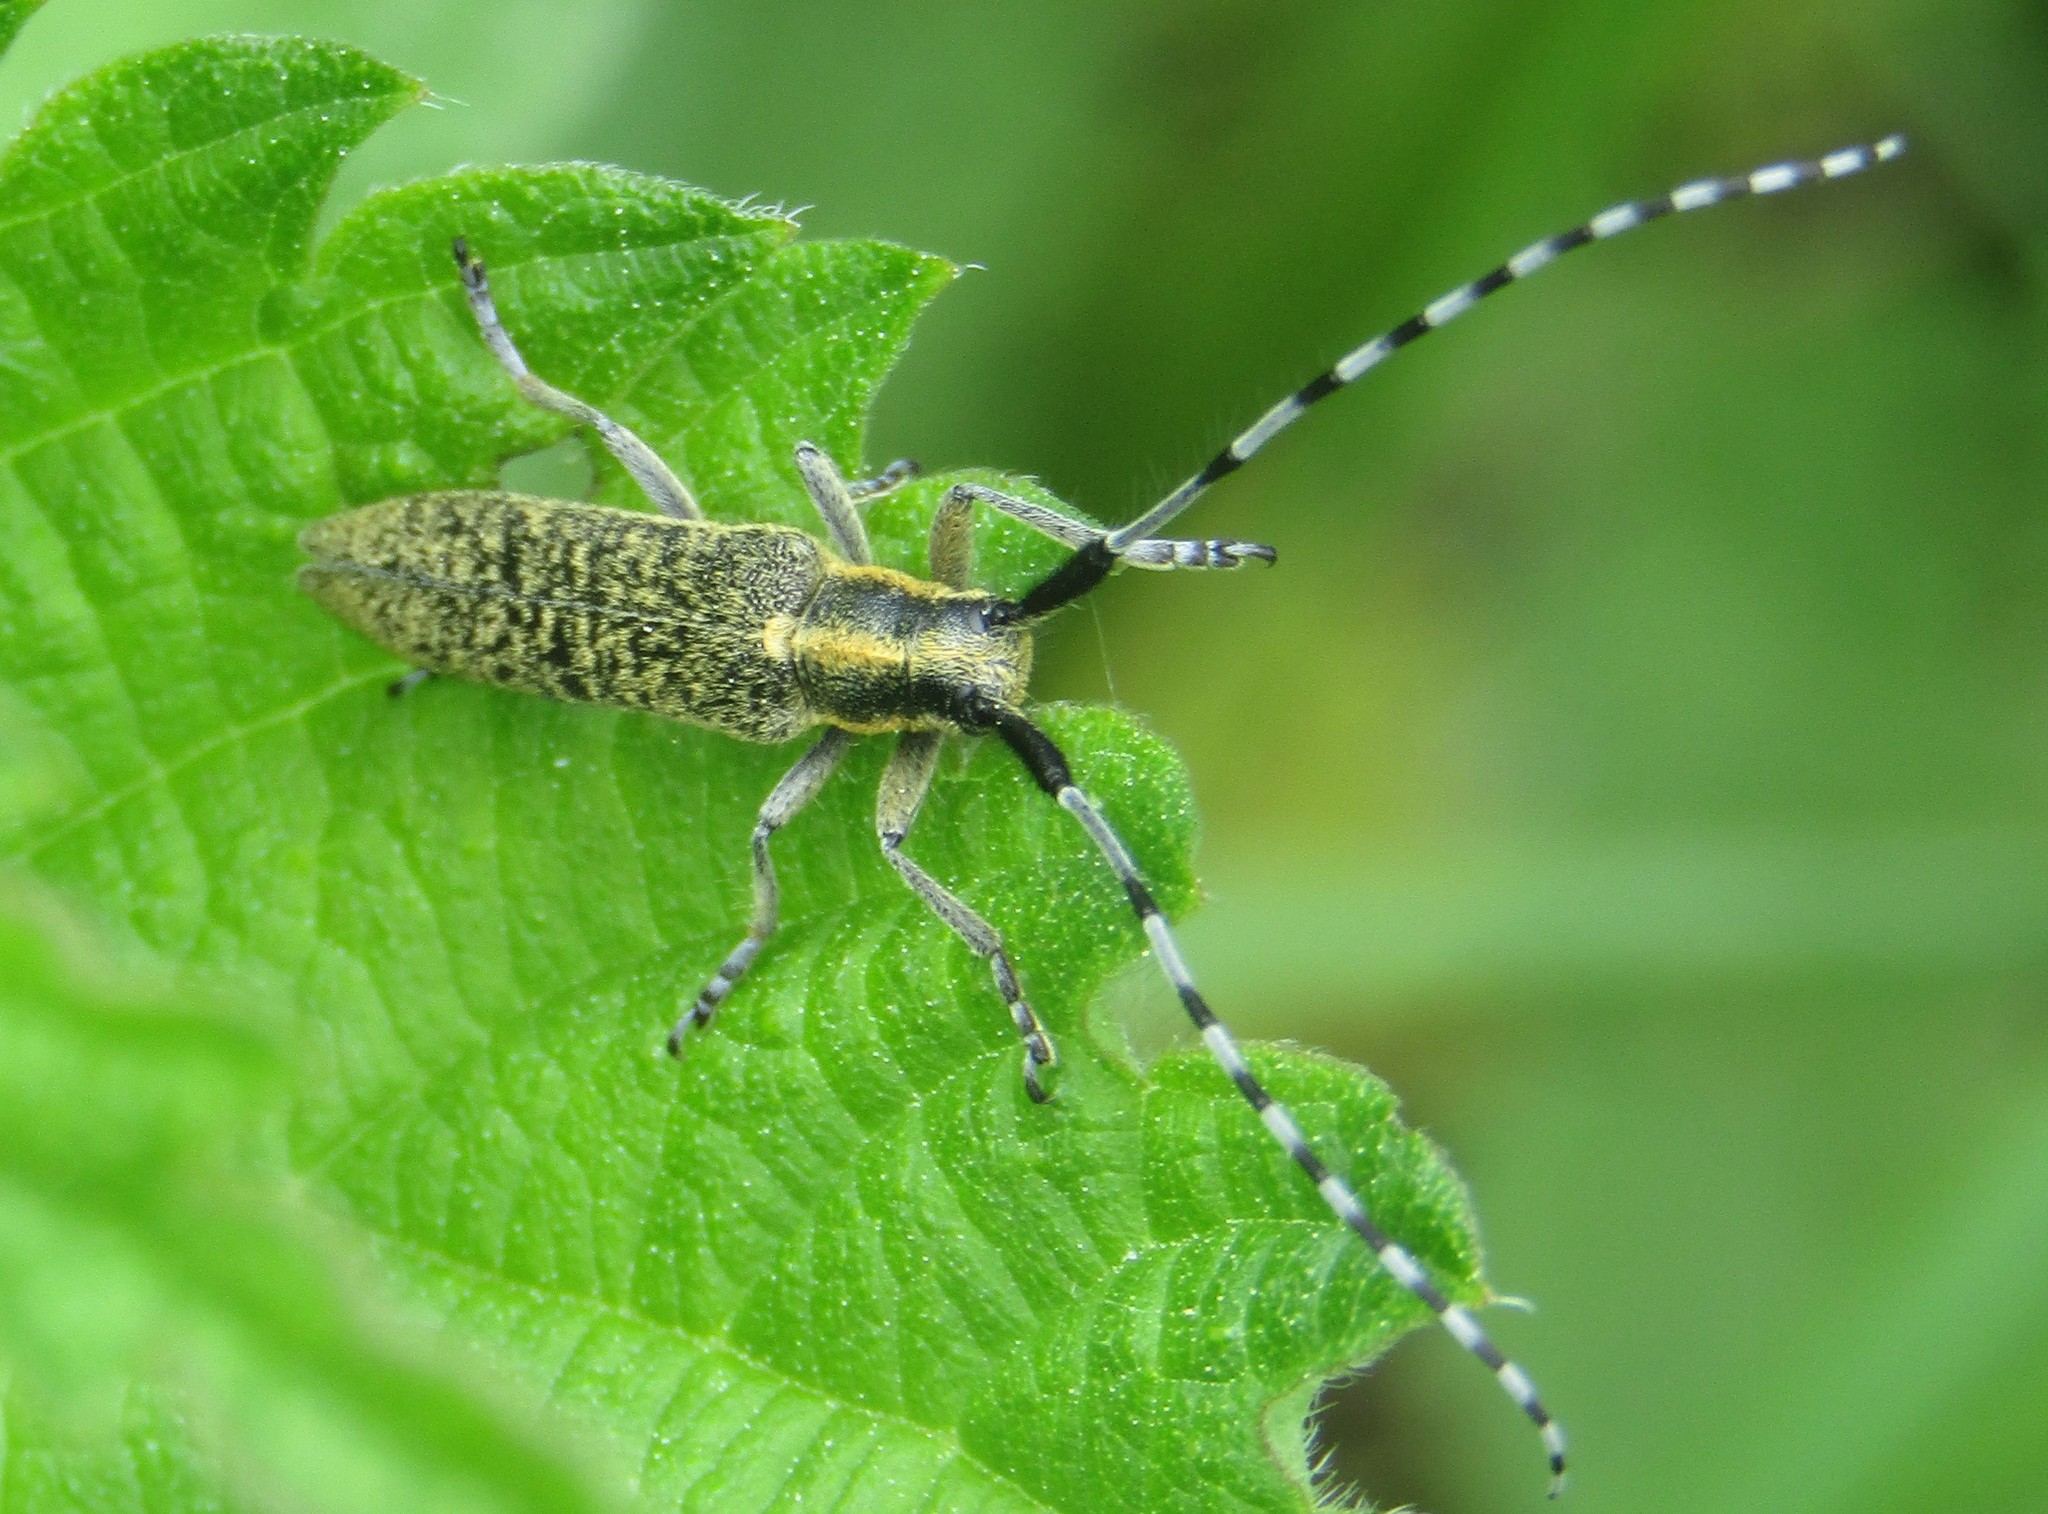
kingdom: Animalia
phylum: Arthropoda
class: Insecta
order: Coleoptera
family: Cerambycidae
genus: Agapanthia
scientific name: Agapanthia villosoviridescens
